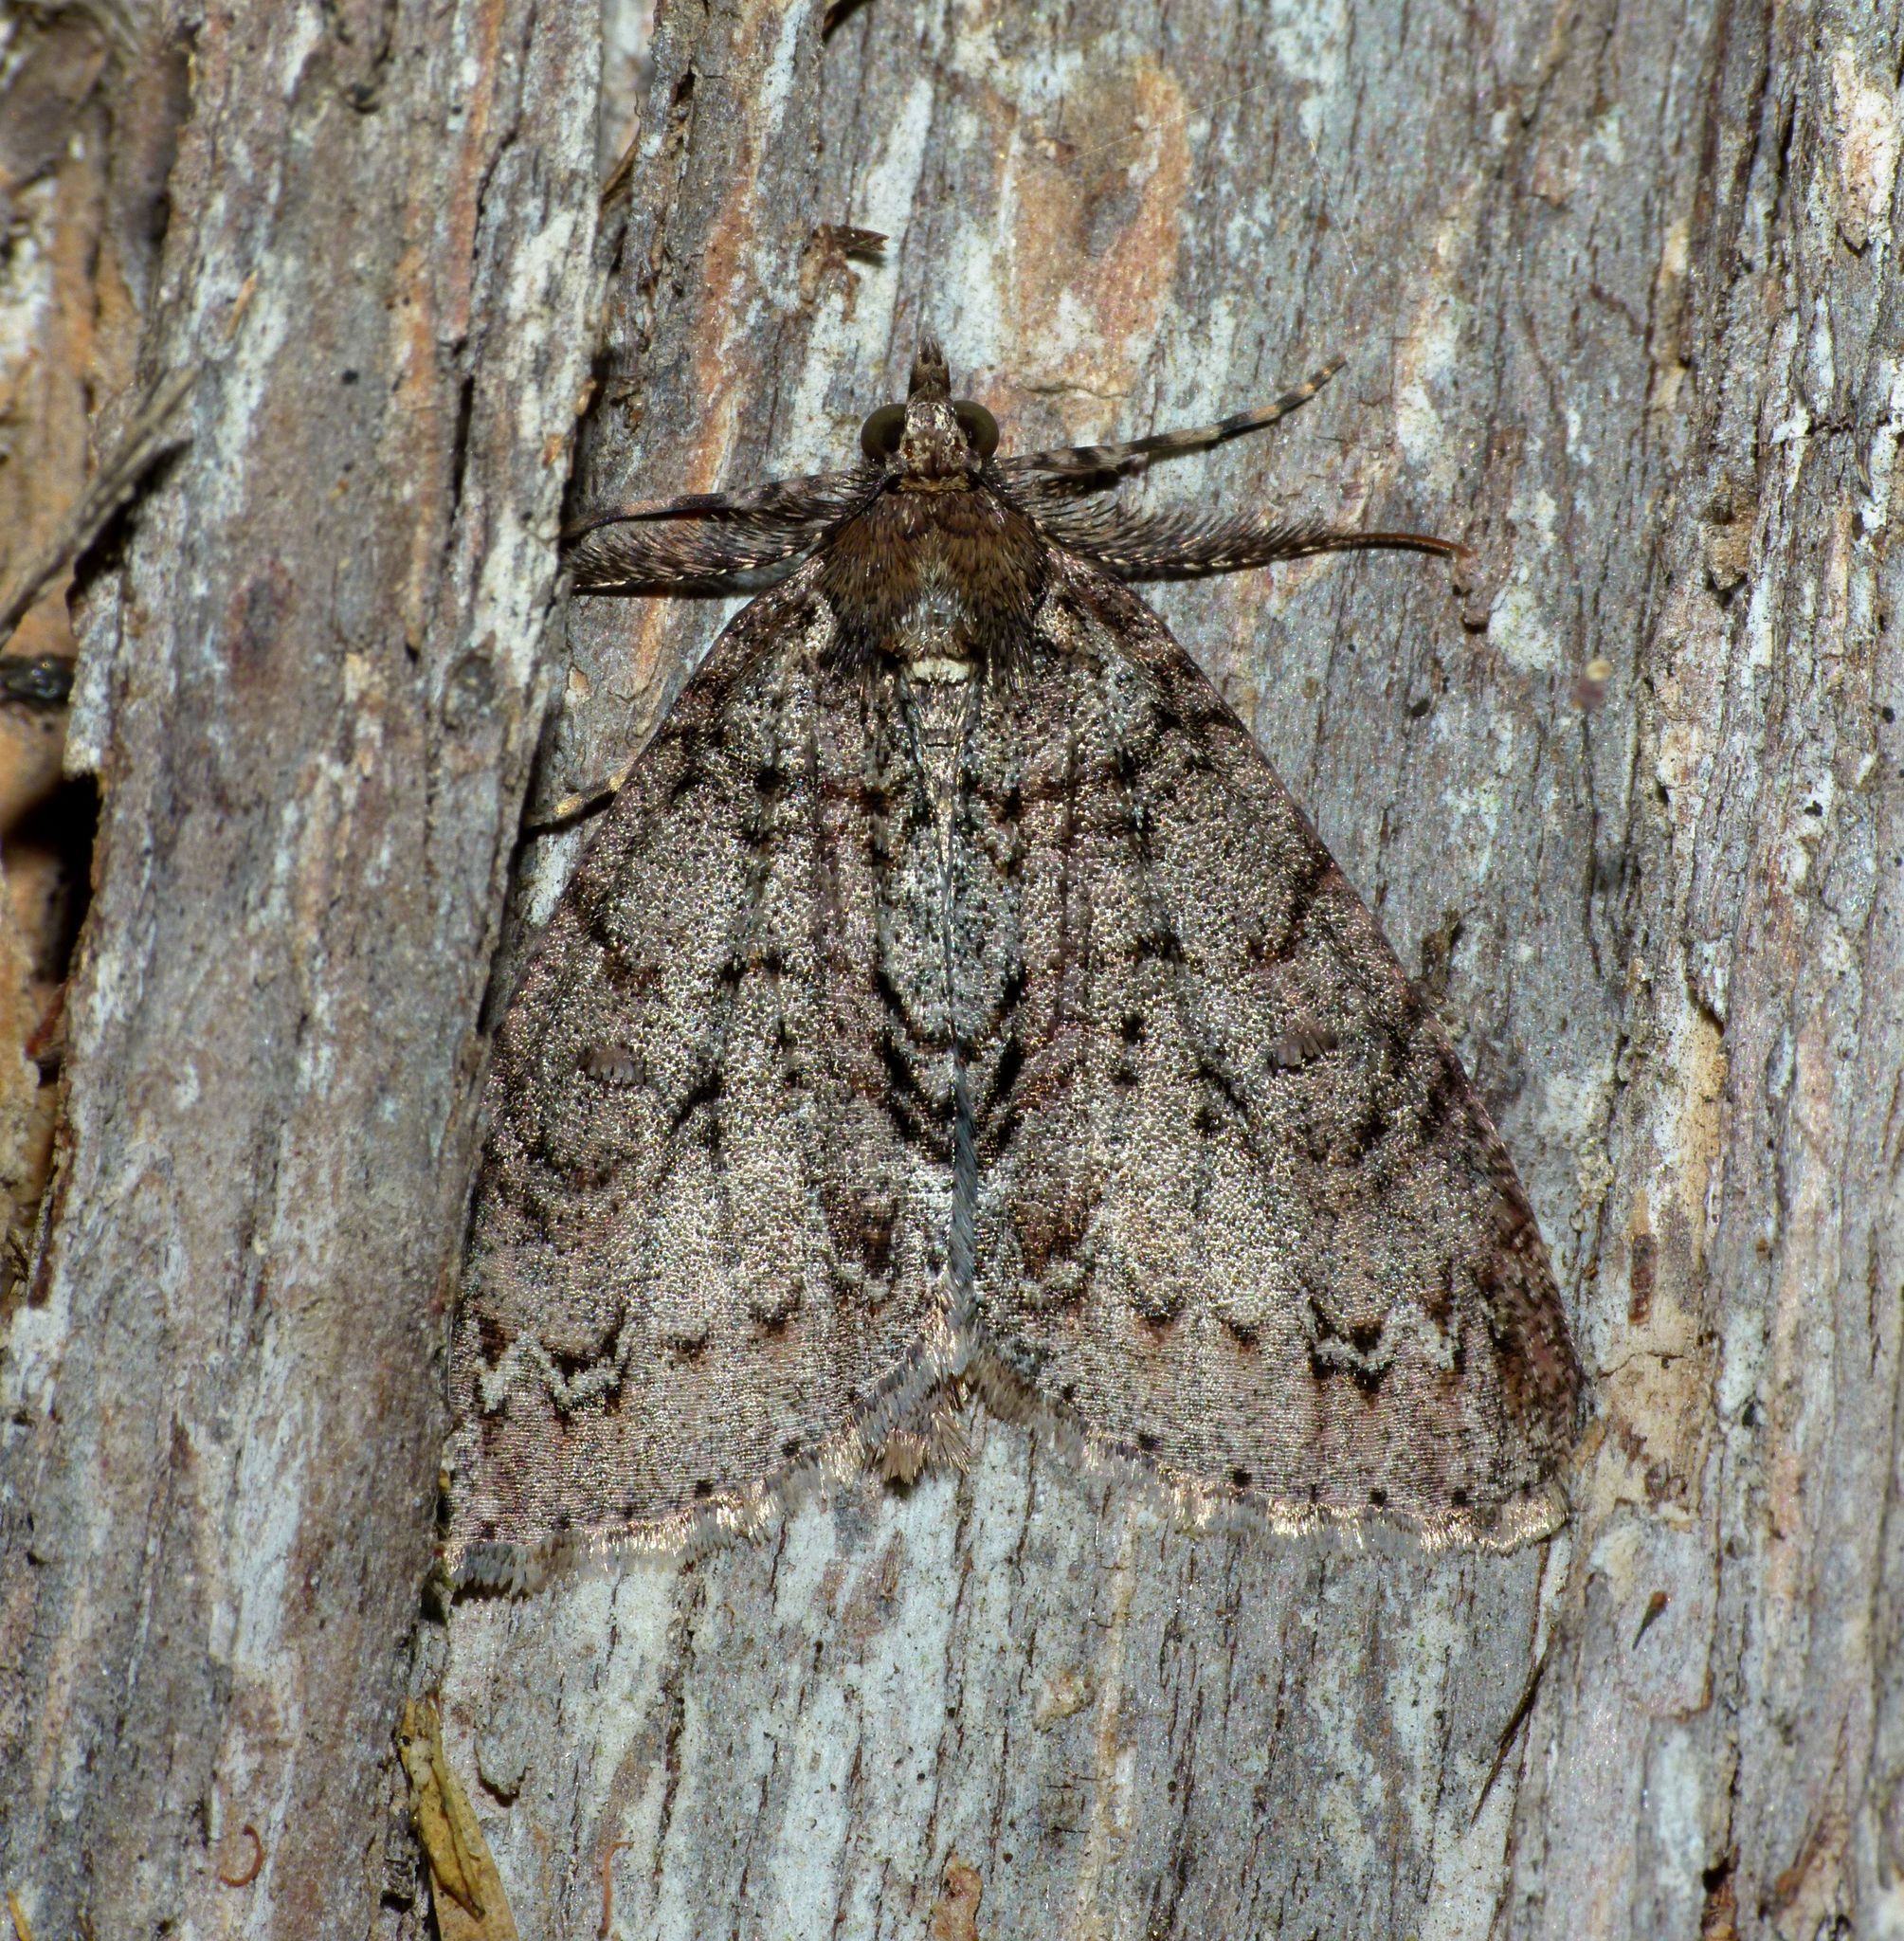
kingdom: Animalia
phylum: Arthropoda
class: Insecta
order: Lepidoptera
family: Geometridae
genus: Pseudocoremia
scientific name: Pseudocoremia suavis
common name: Common forest looper
